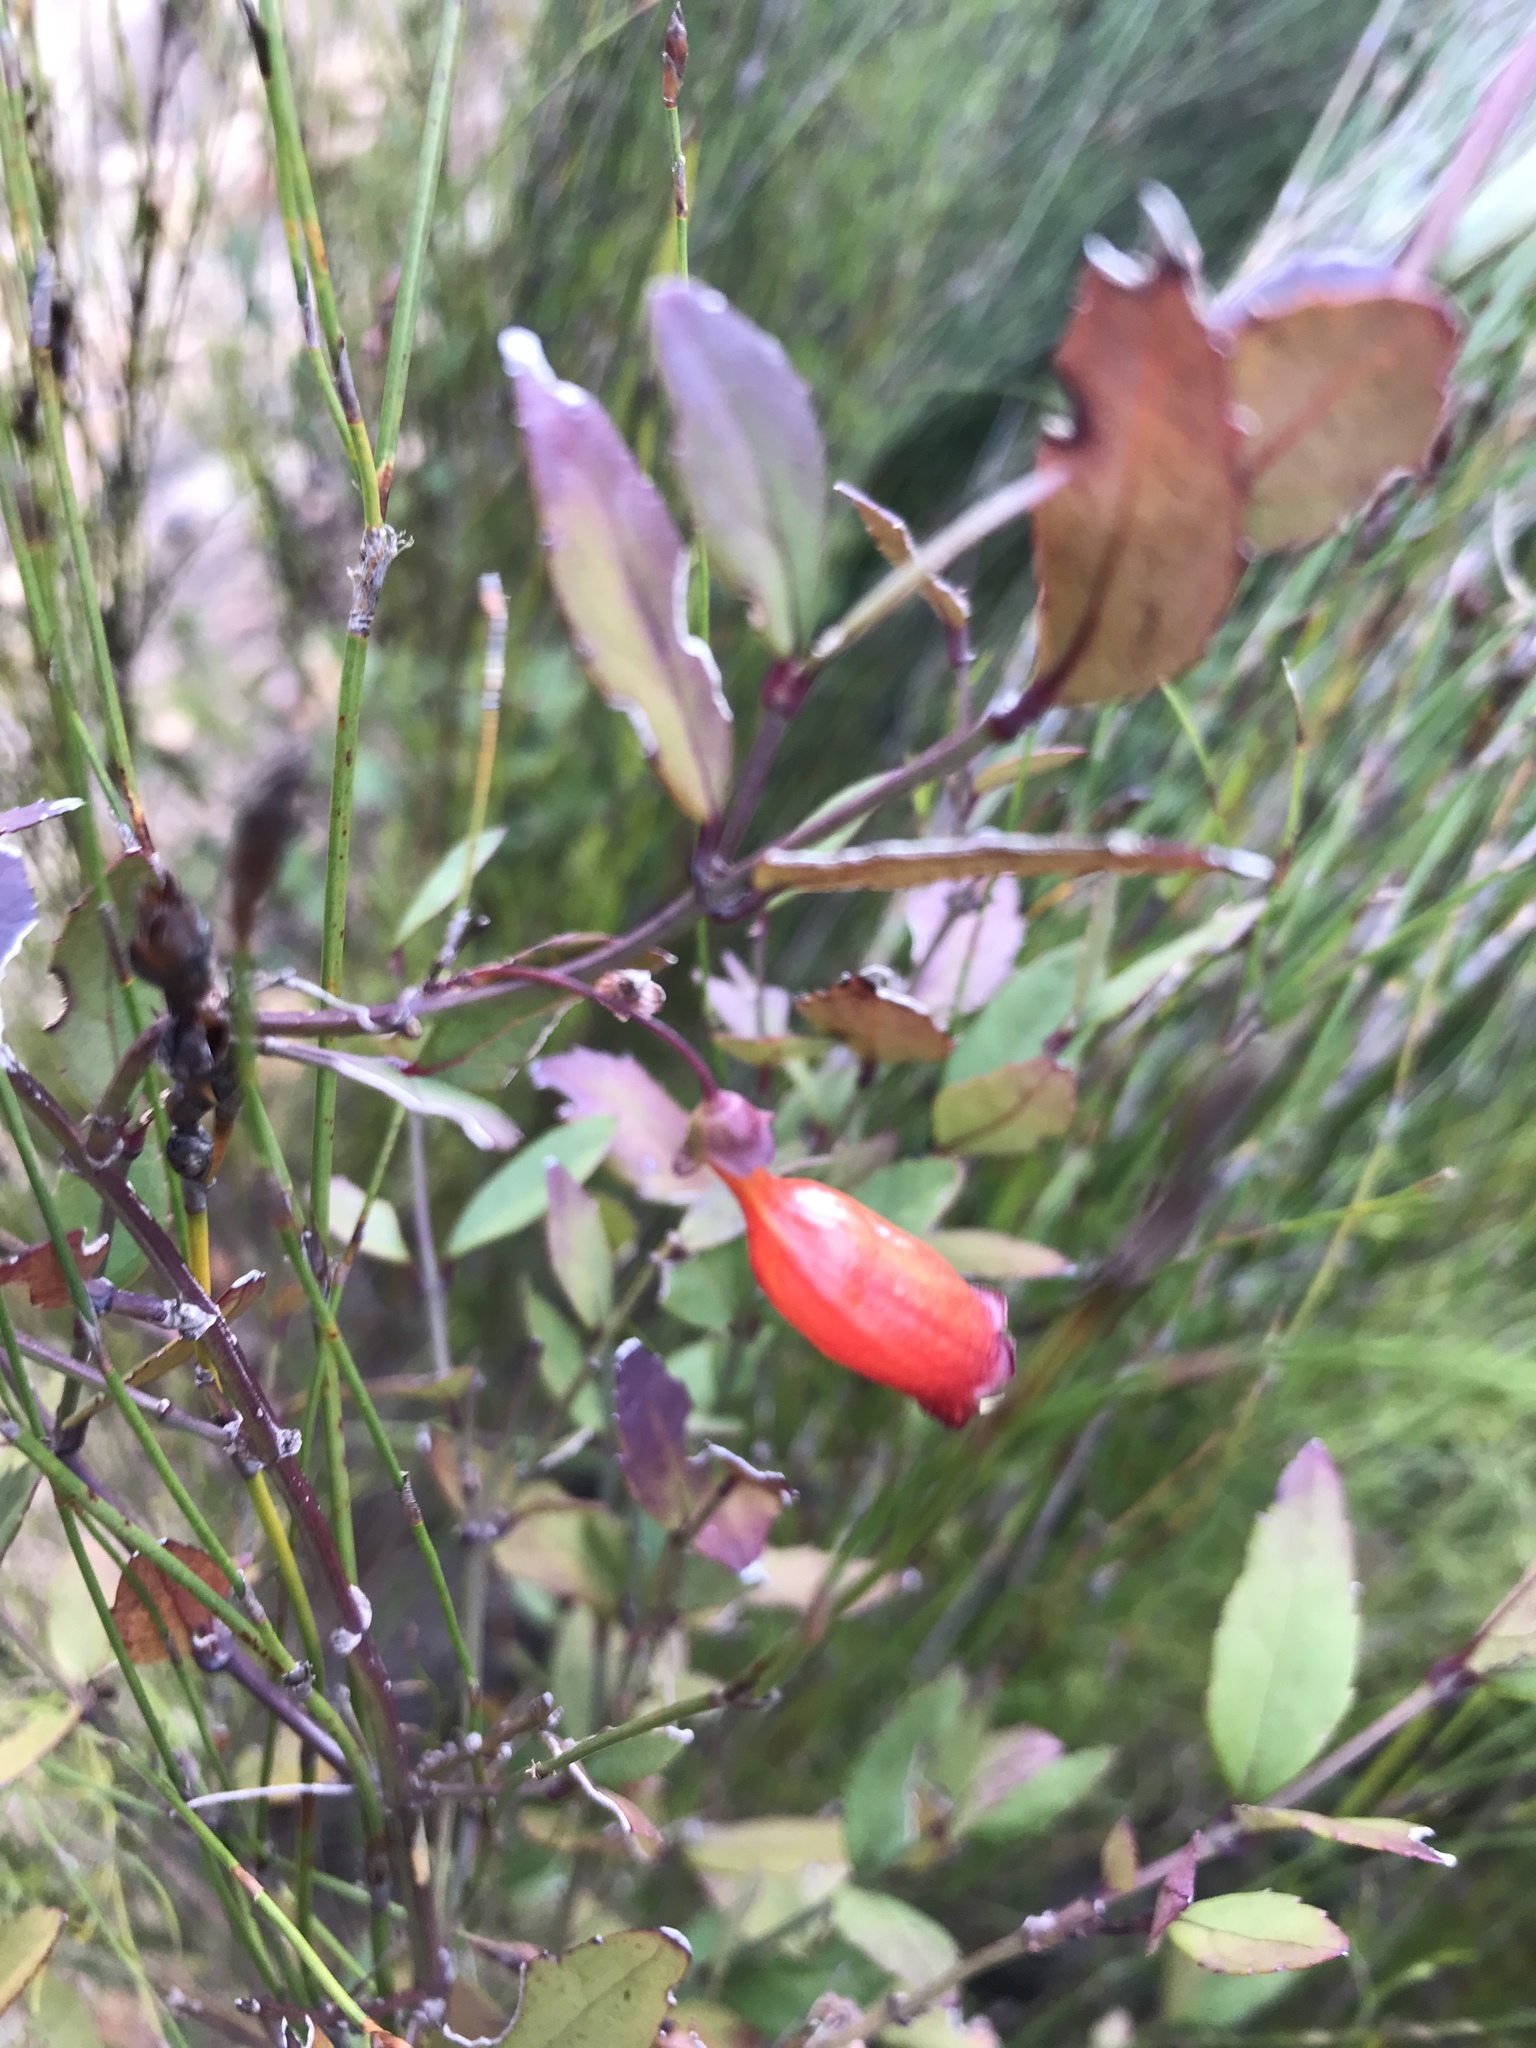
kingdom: Plantae
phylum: Tracheophyta
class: Magnoliopsida
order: Lamiales
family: Stilbaceae
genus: Halleria
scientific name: Halleria elliptica
